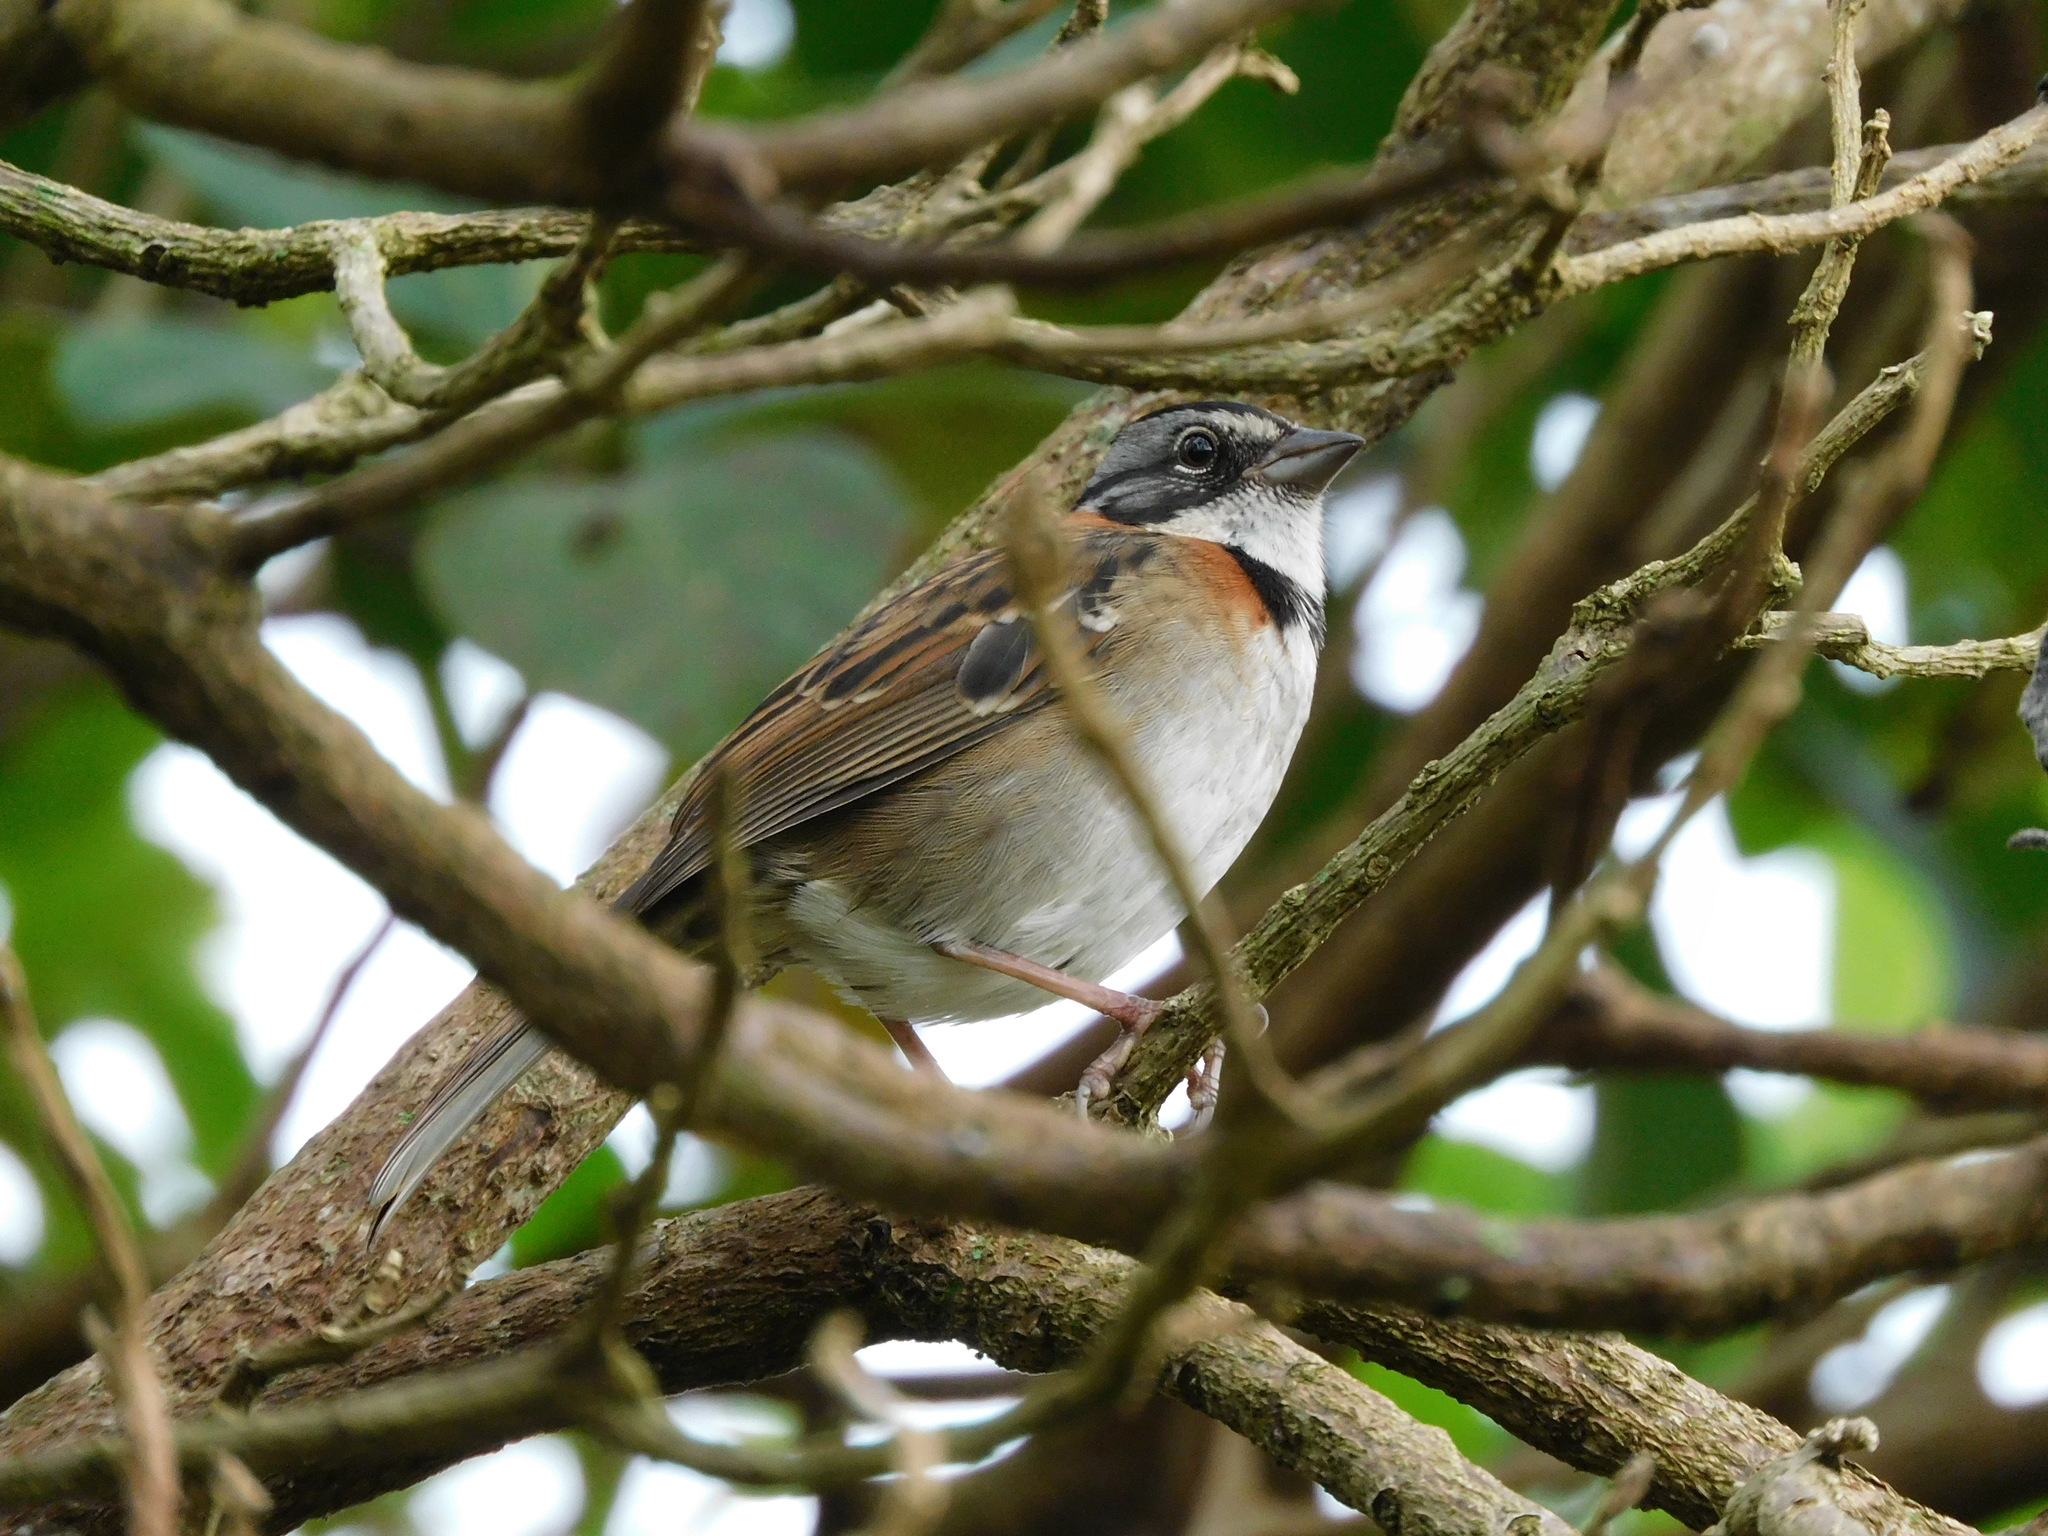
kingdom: Animalia
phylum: Chordata
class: Aves
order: Passeriformes
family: Passerellidae
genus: Zonotrichia
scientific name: Zonotrichia capensis
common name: Rufous-collared sparrow
